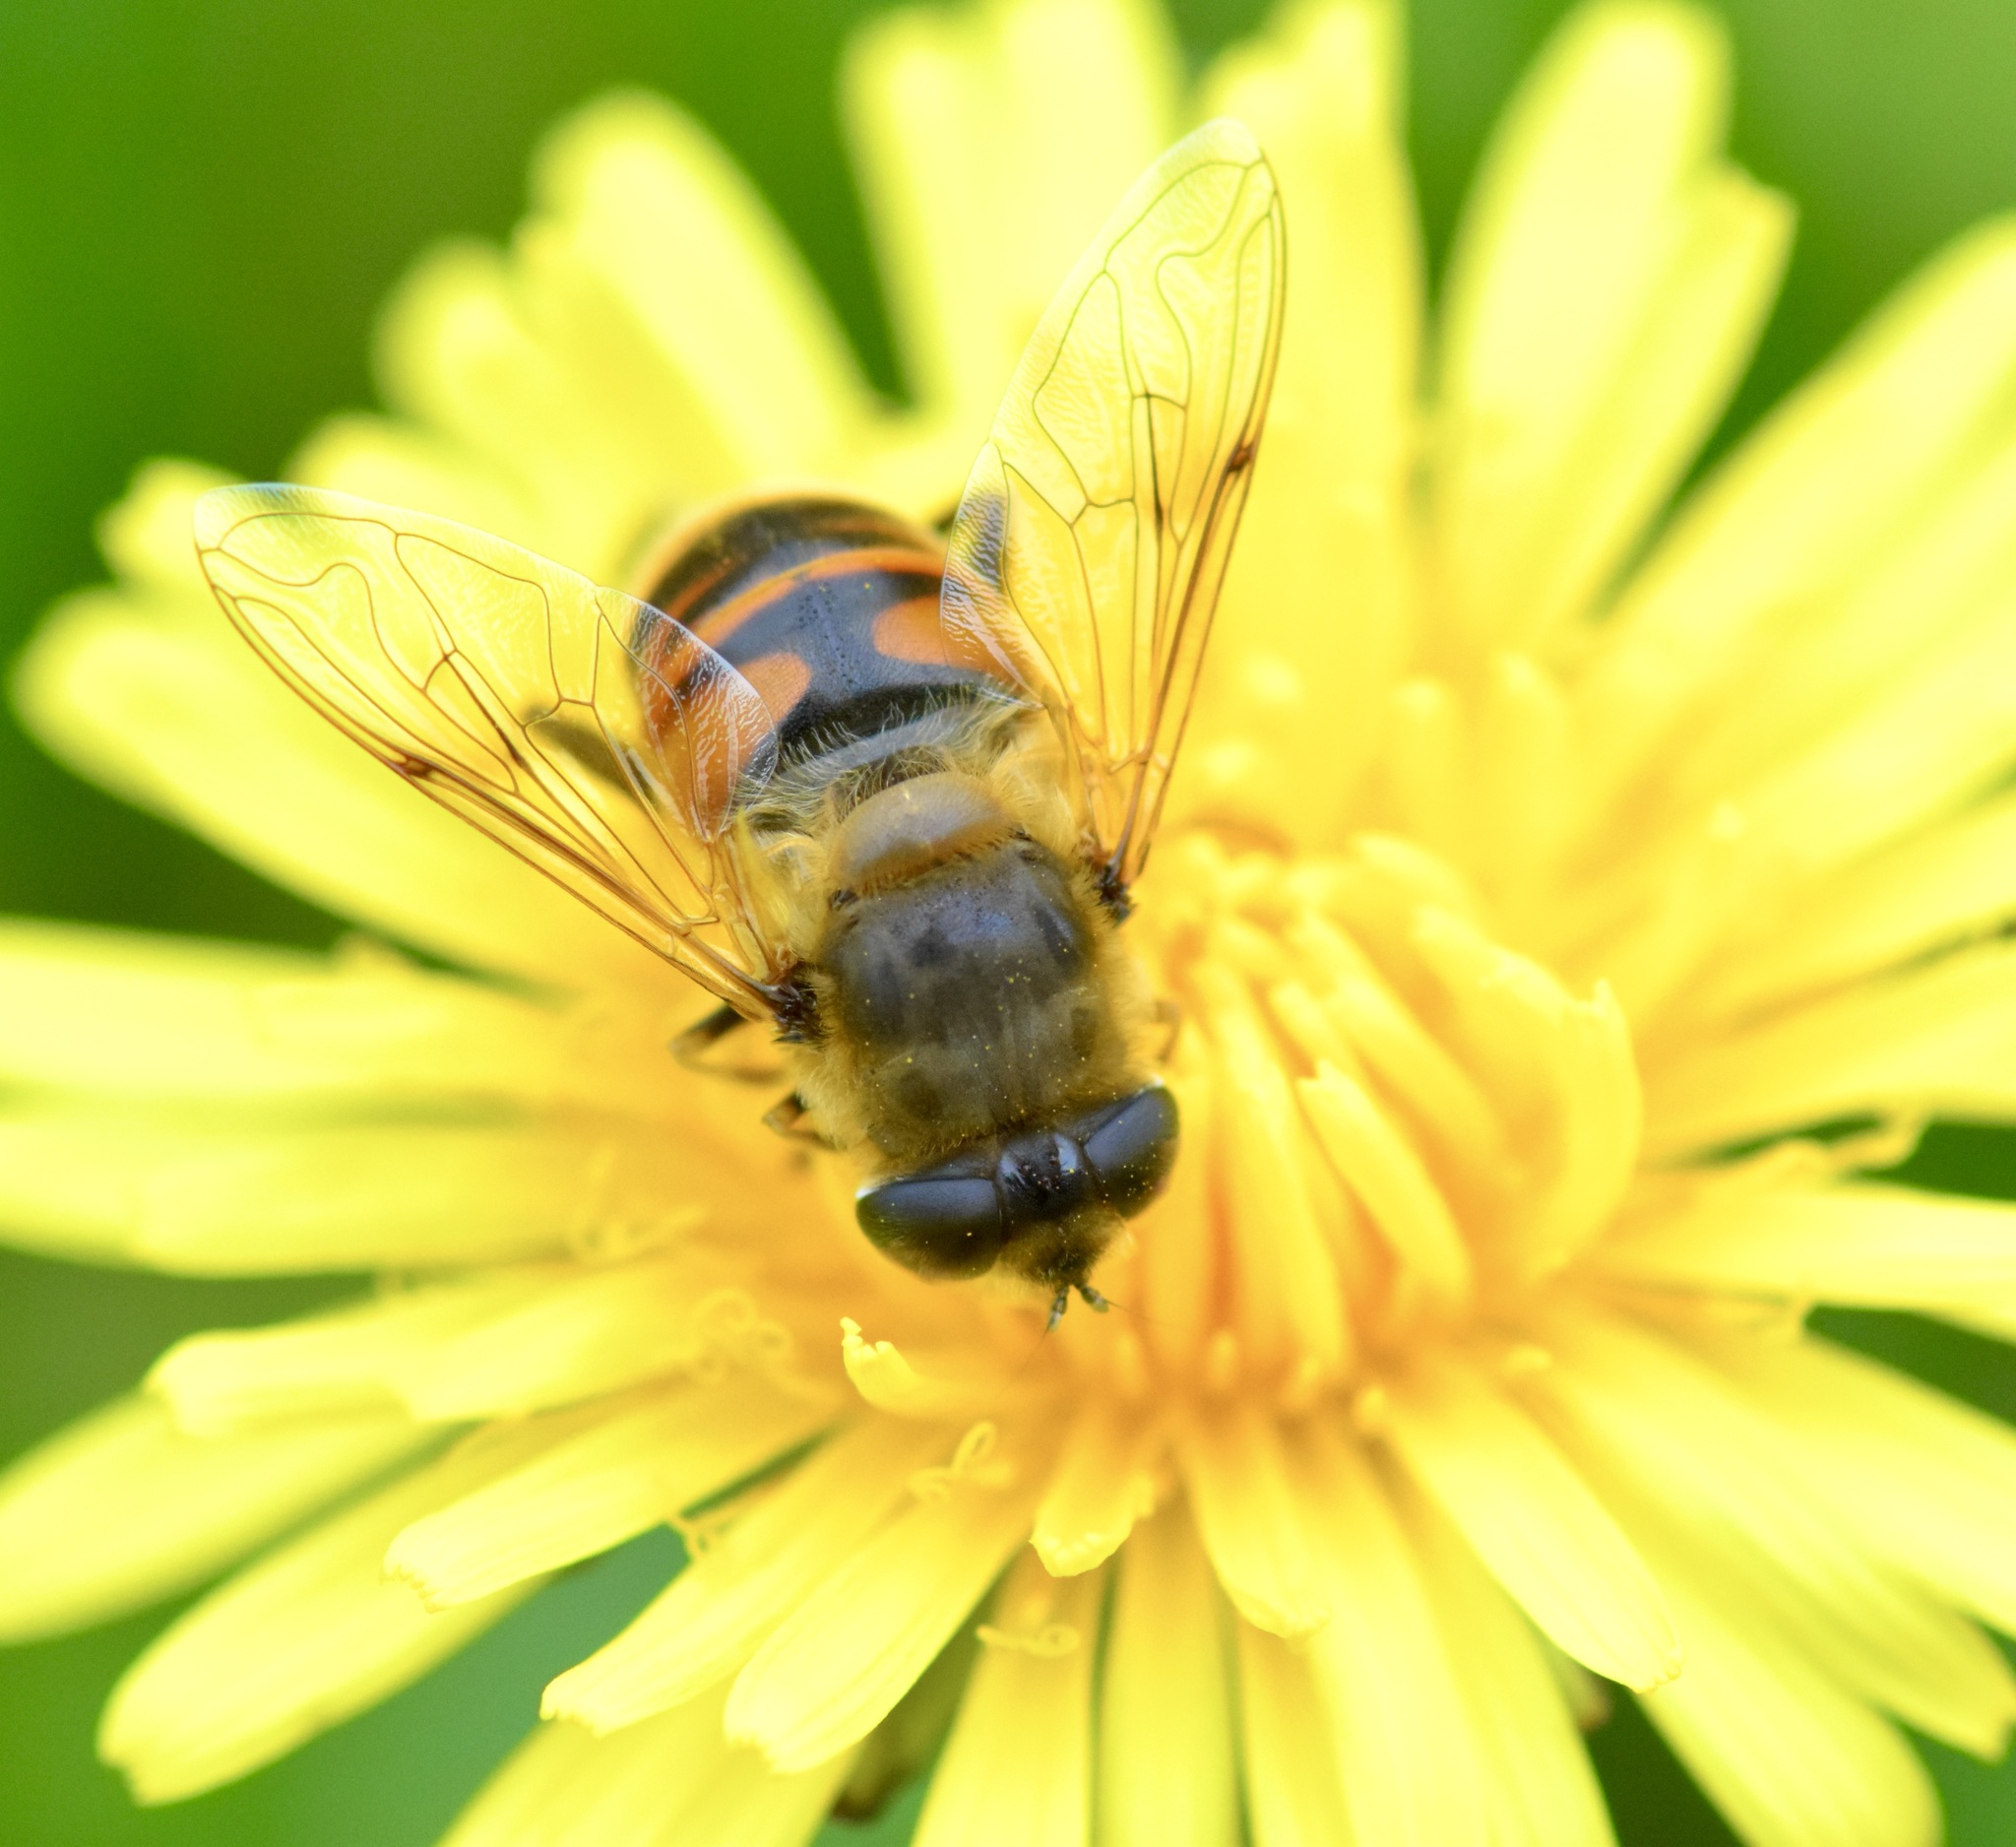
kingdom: Animalia
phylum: Arthropoda
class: Insecta
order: Diptera
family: Syrphidae
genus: Eristalis
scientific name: Eristalis tenax
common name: Drone fly
